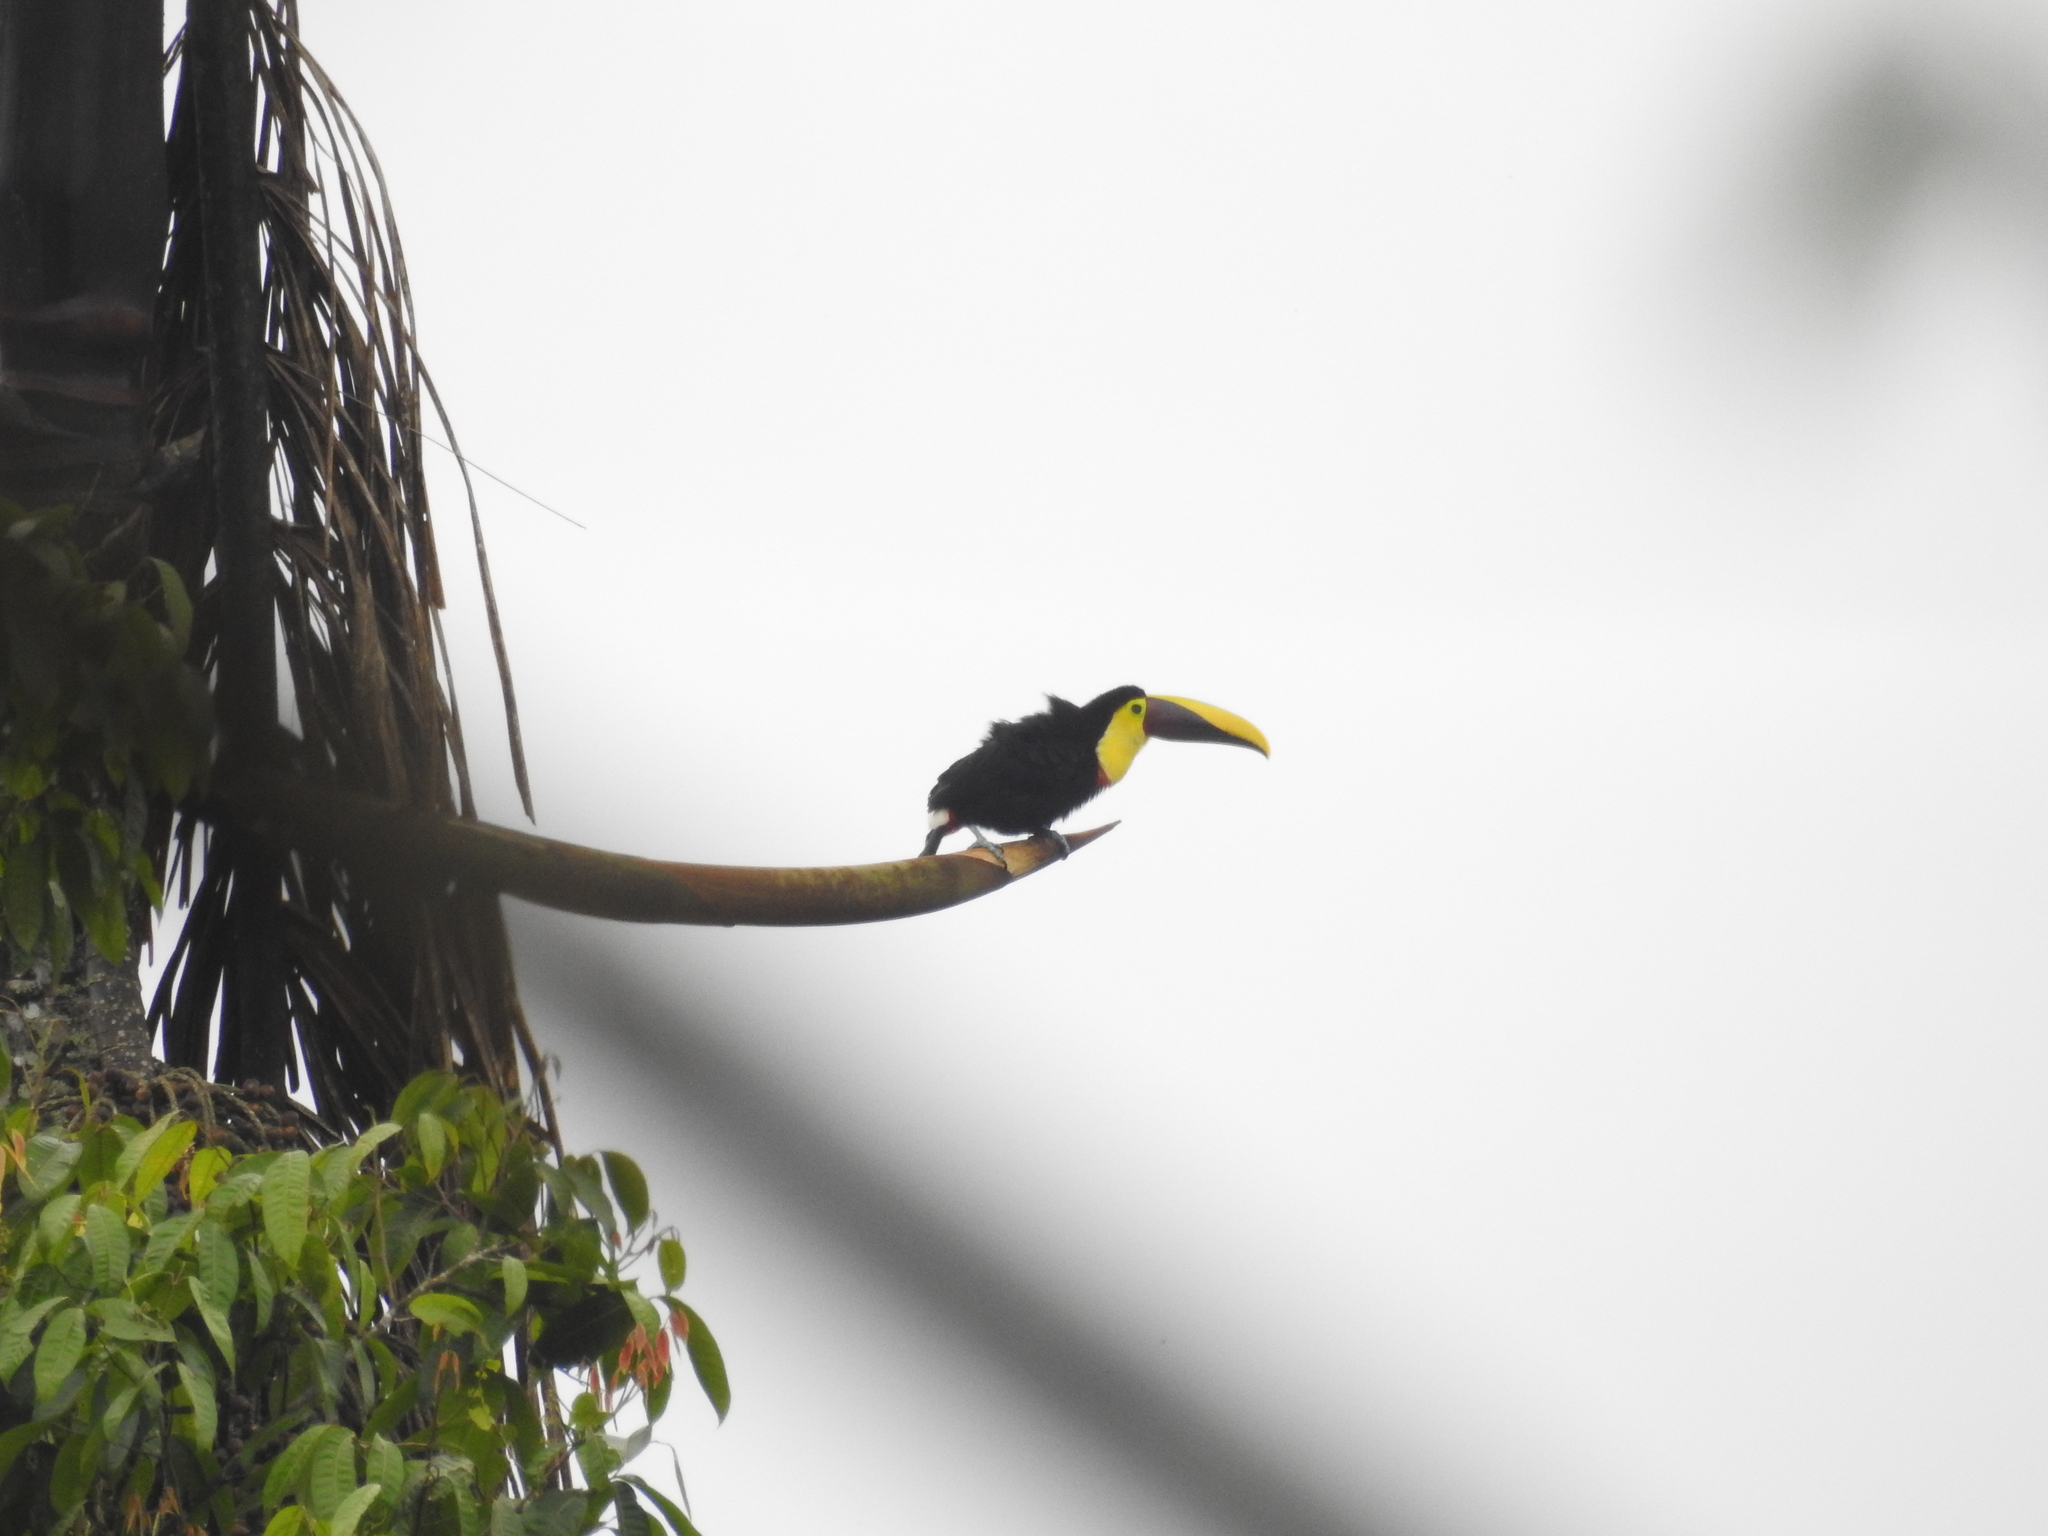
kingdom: Animalia
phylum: Chordata
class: Aves
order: Piciformes
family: Ramphastidae
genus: Ramphastos
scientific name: Ramphastos ambiguus
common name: Yellow-throated toucan
